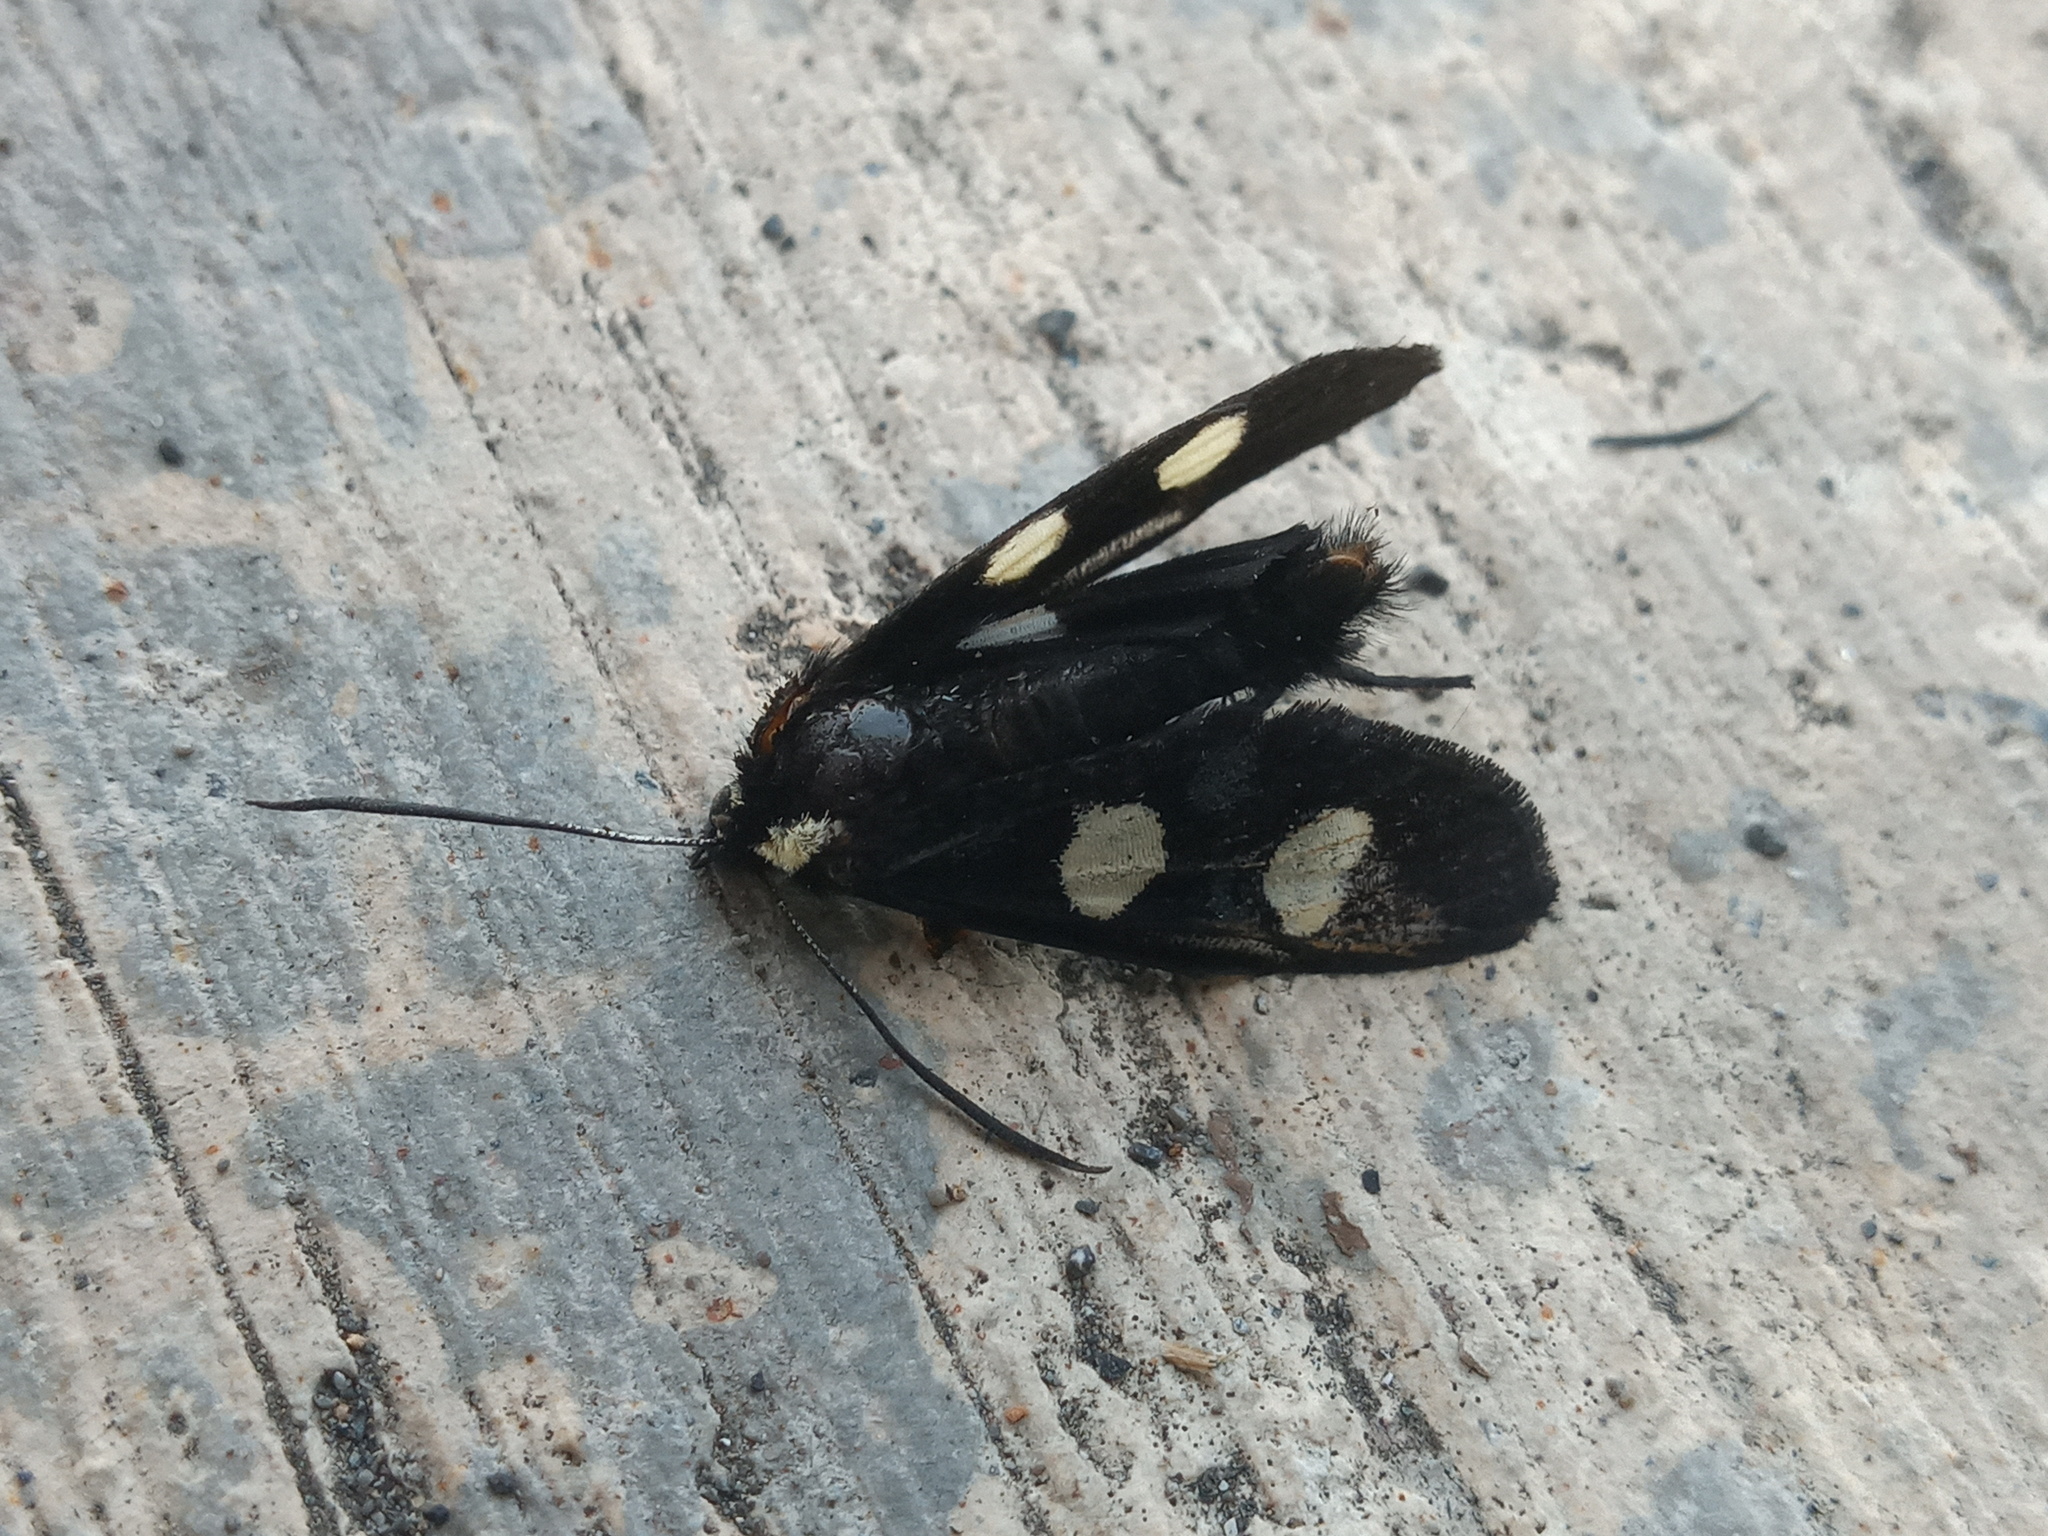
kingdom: Animalia
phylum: Arthropoda
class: Insecta
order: Lepidoptera
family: Noctuidae
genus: Alypia
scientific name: Alypia disparata
